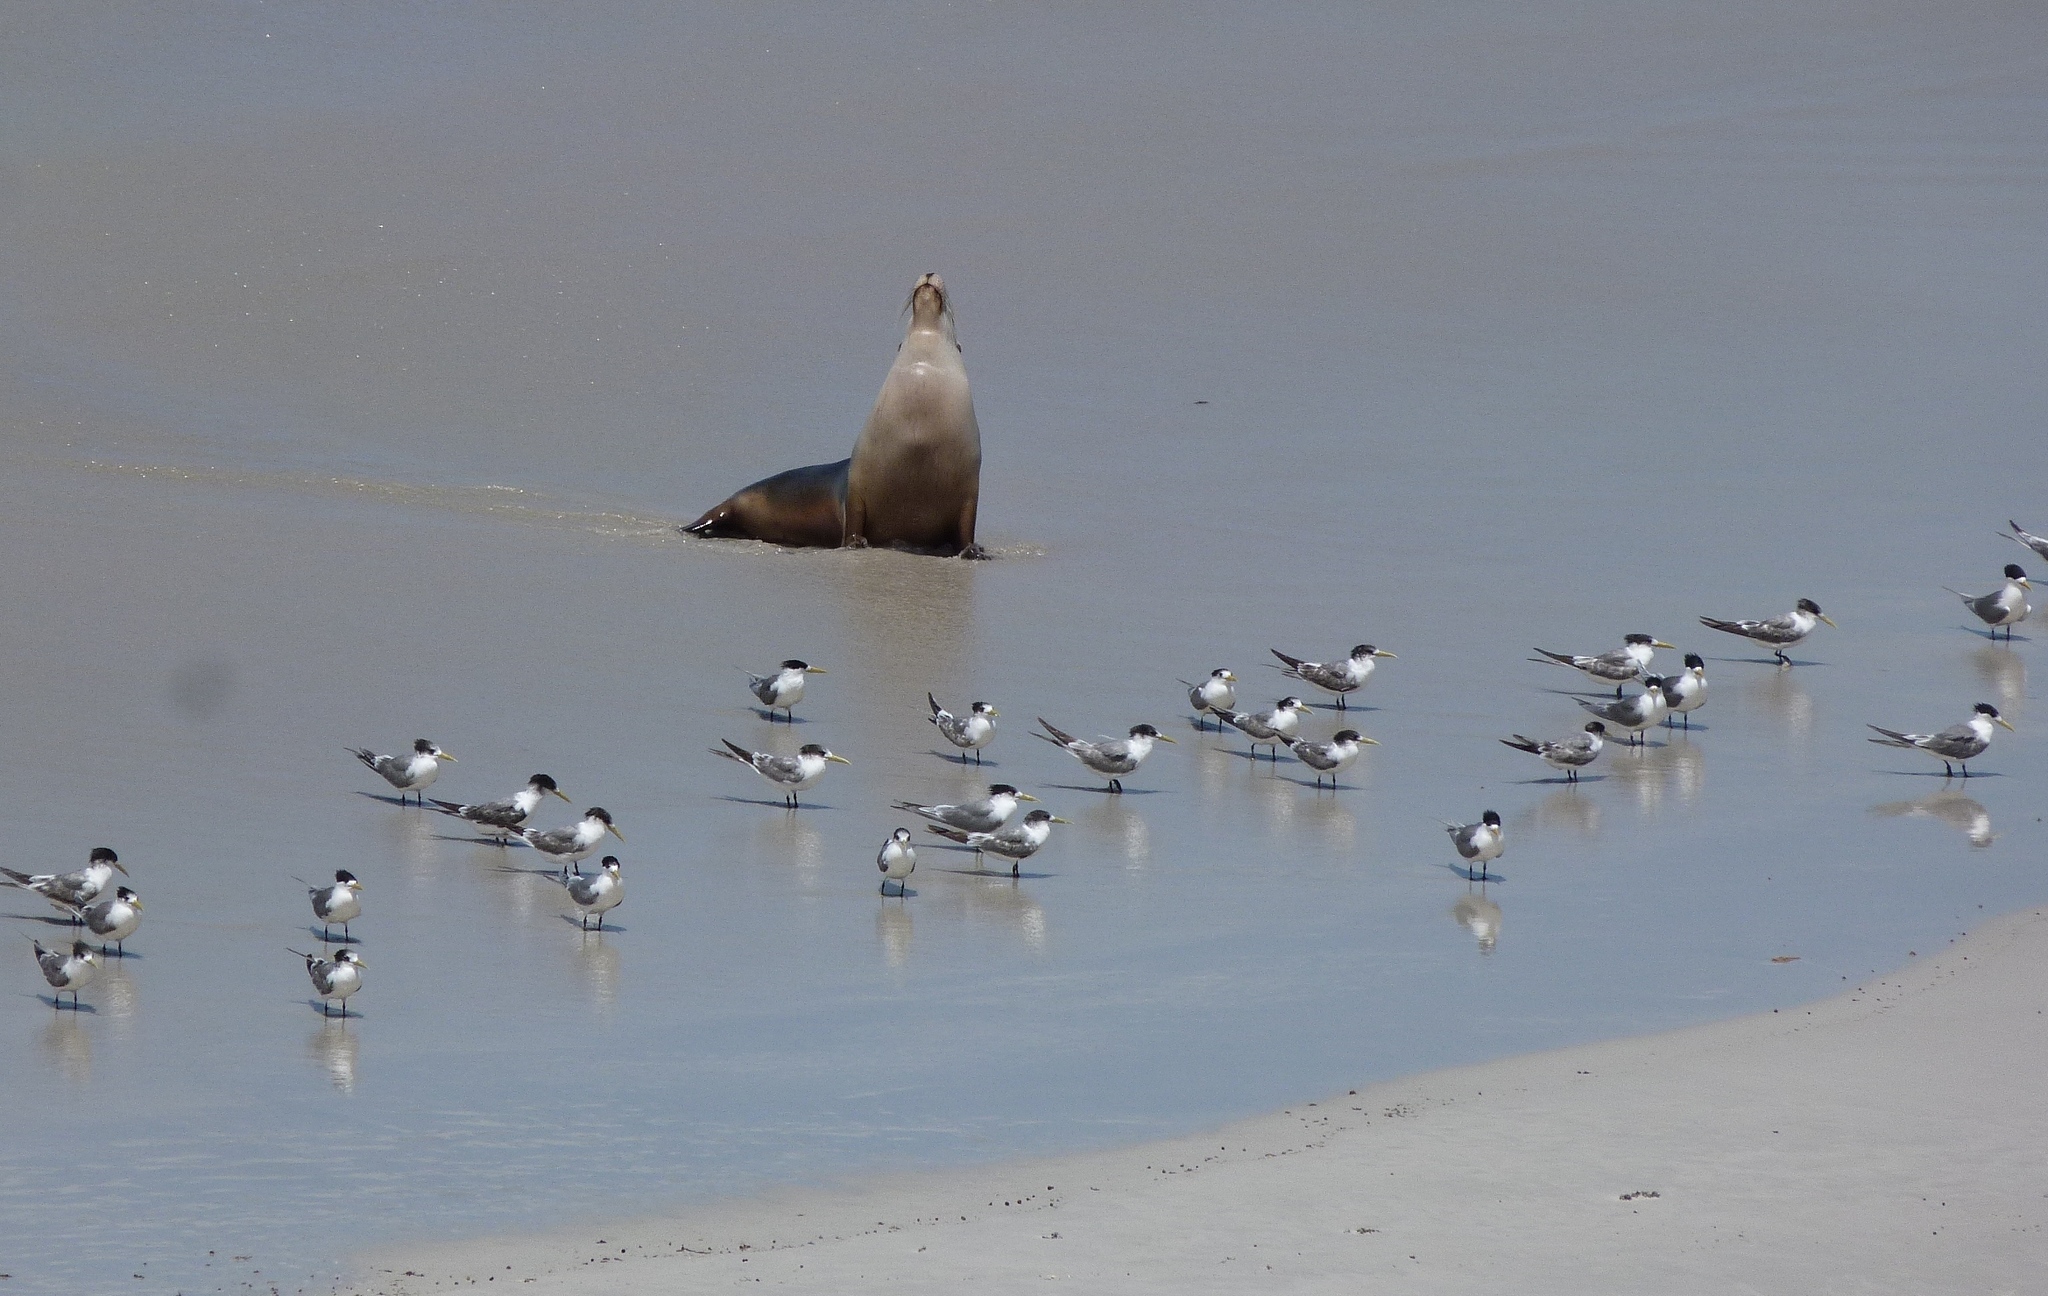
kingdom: Animalia
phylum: Chordata
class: Aves
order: Charadriiformes
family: Laridae
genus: Thalasseus
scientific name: Thalasseus bergii
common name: Greater crested tern
